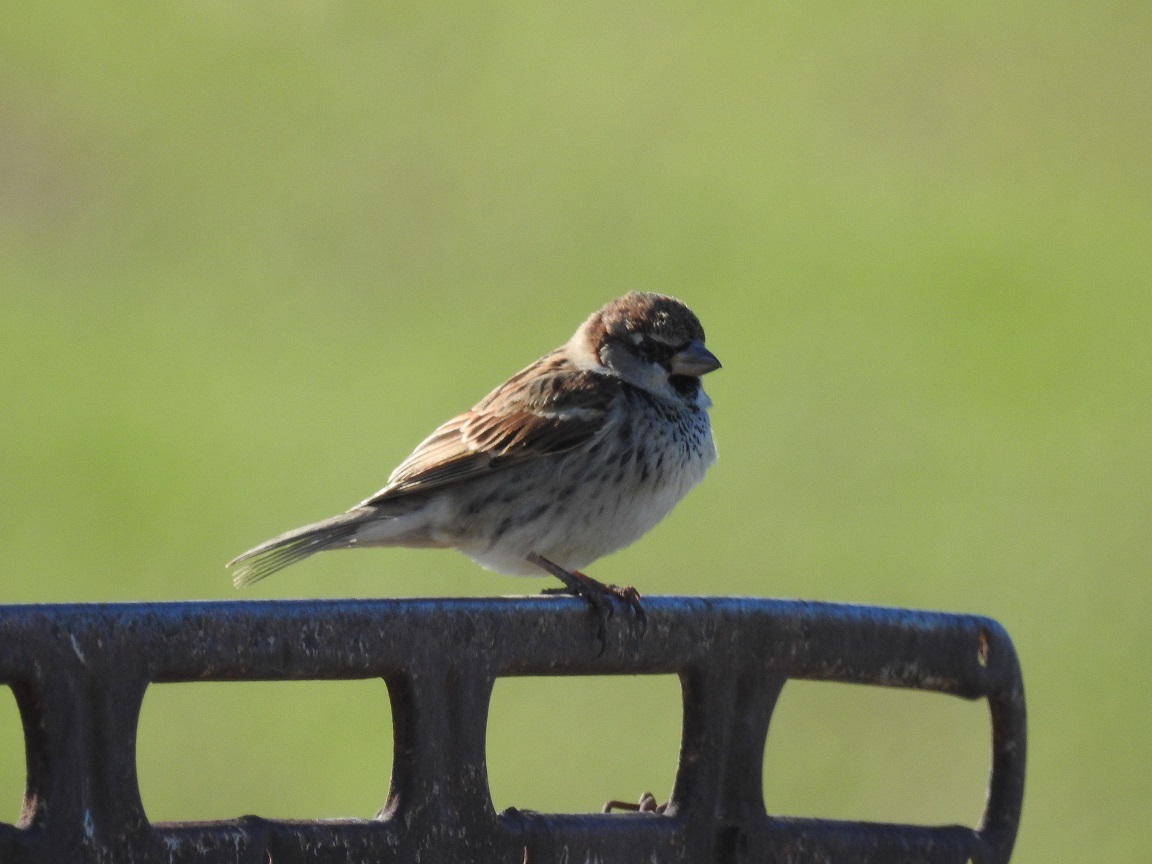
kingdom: Animalia
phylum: Chordata
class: Aves
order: Passeriformes
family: Passeridae
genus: Passer
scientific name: Passer hispaniolensis
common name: Spanish sparrow
